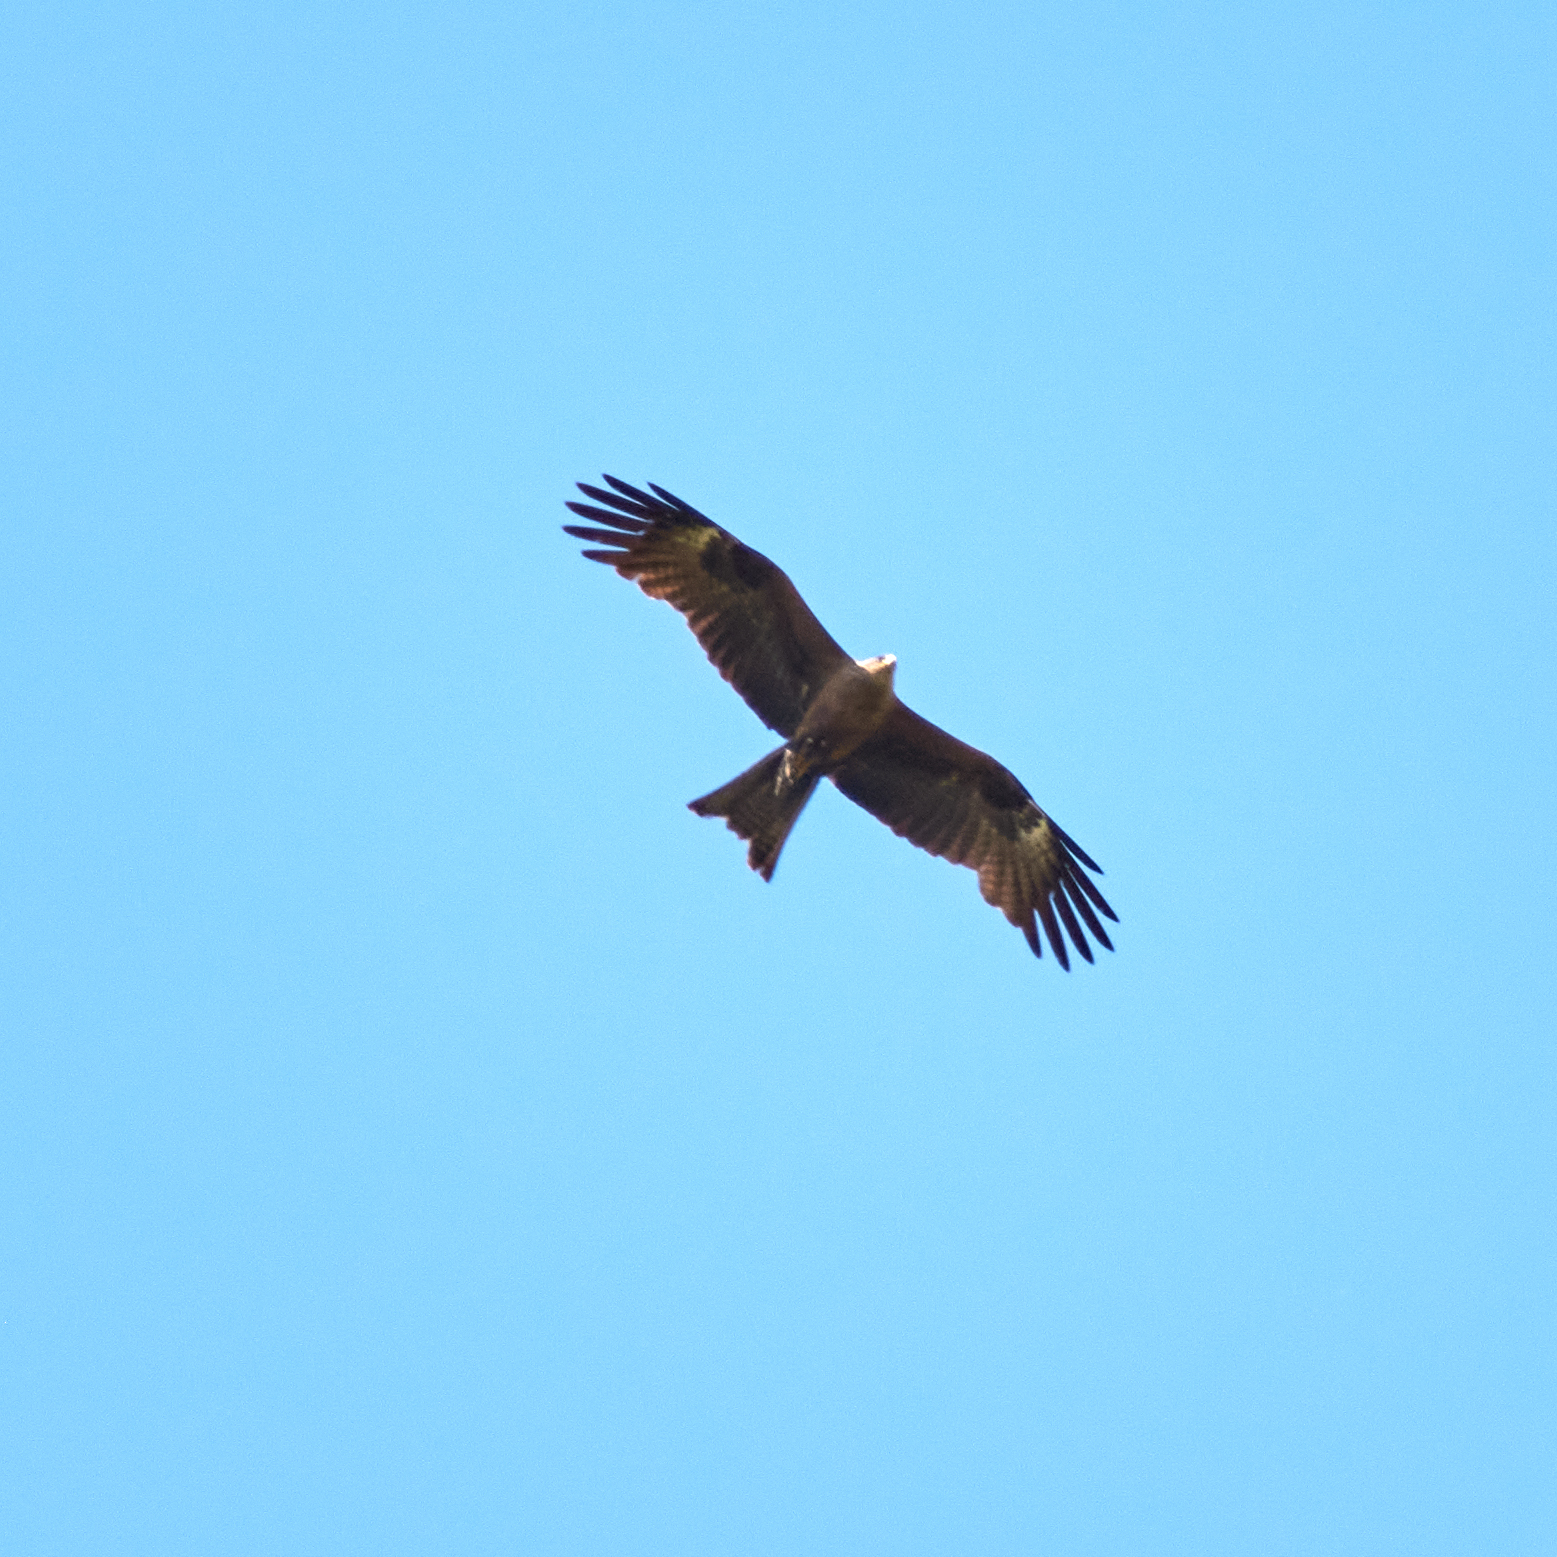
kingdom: Animalia
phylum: Chordata
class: Aves
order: Accipitriformes
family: Accipitridae
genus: Milvus
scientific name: Milvus migrans
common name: Black kite
